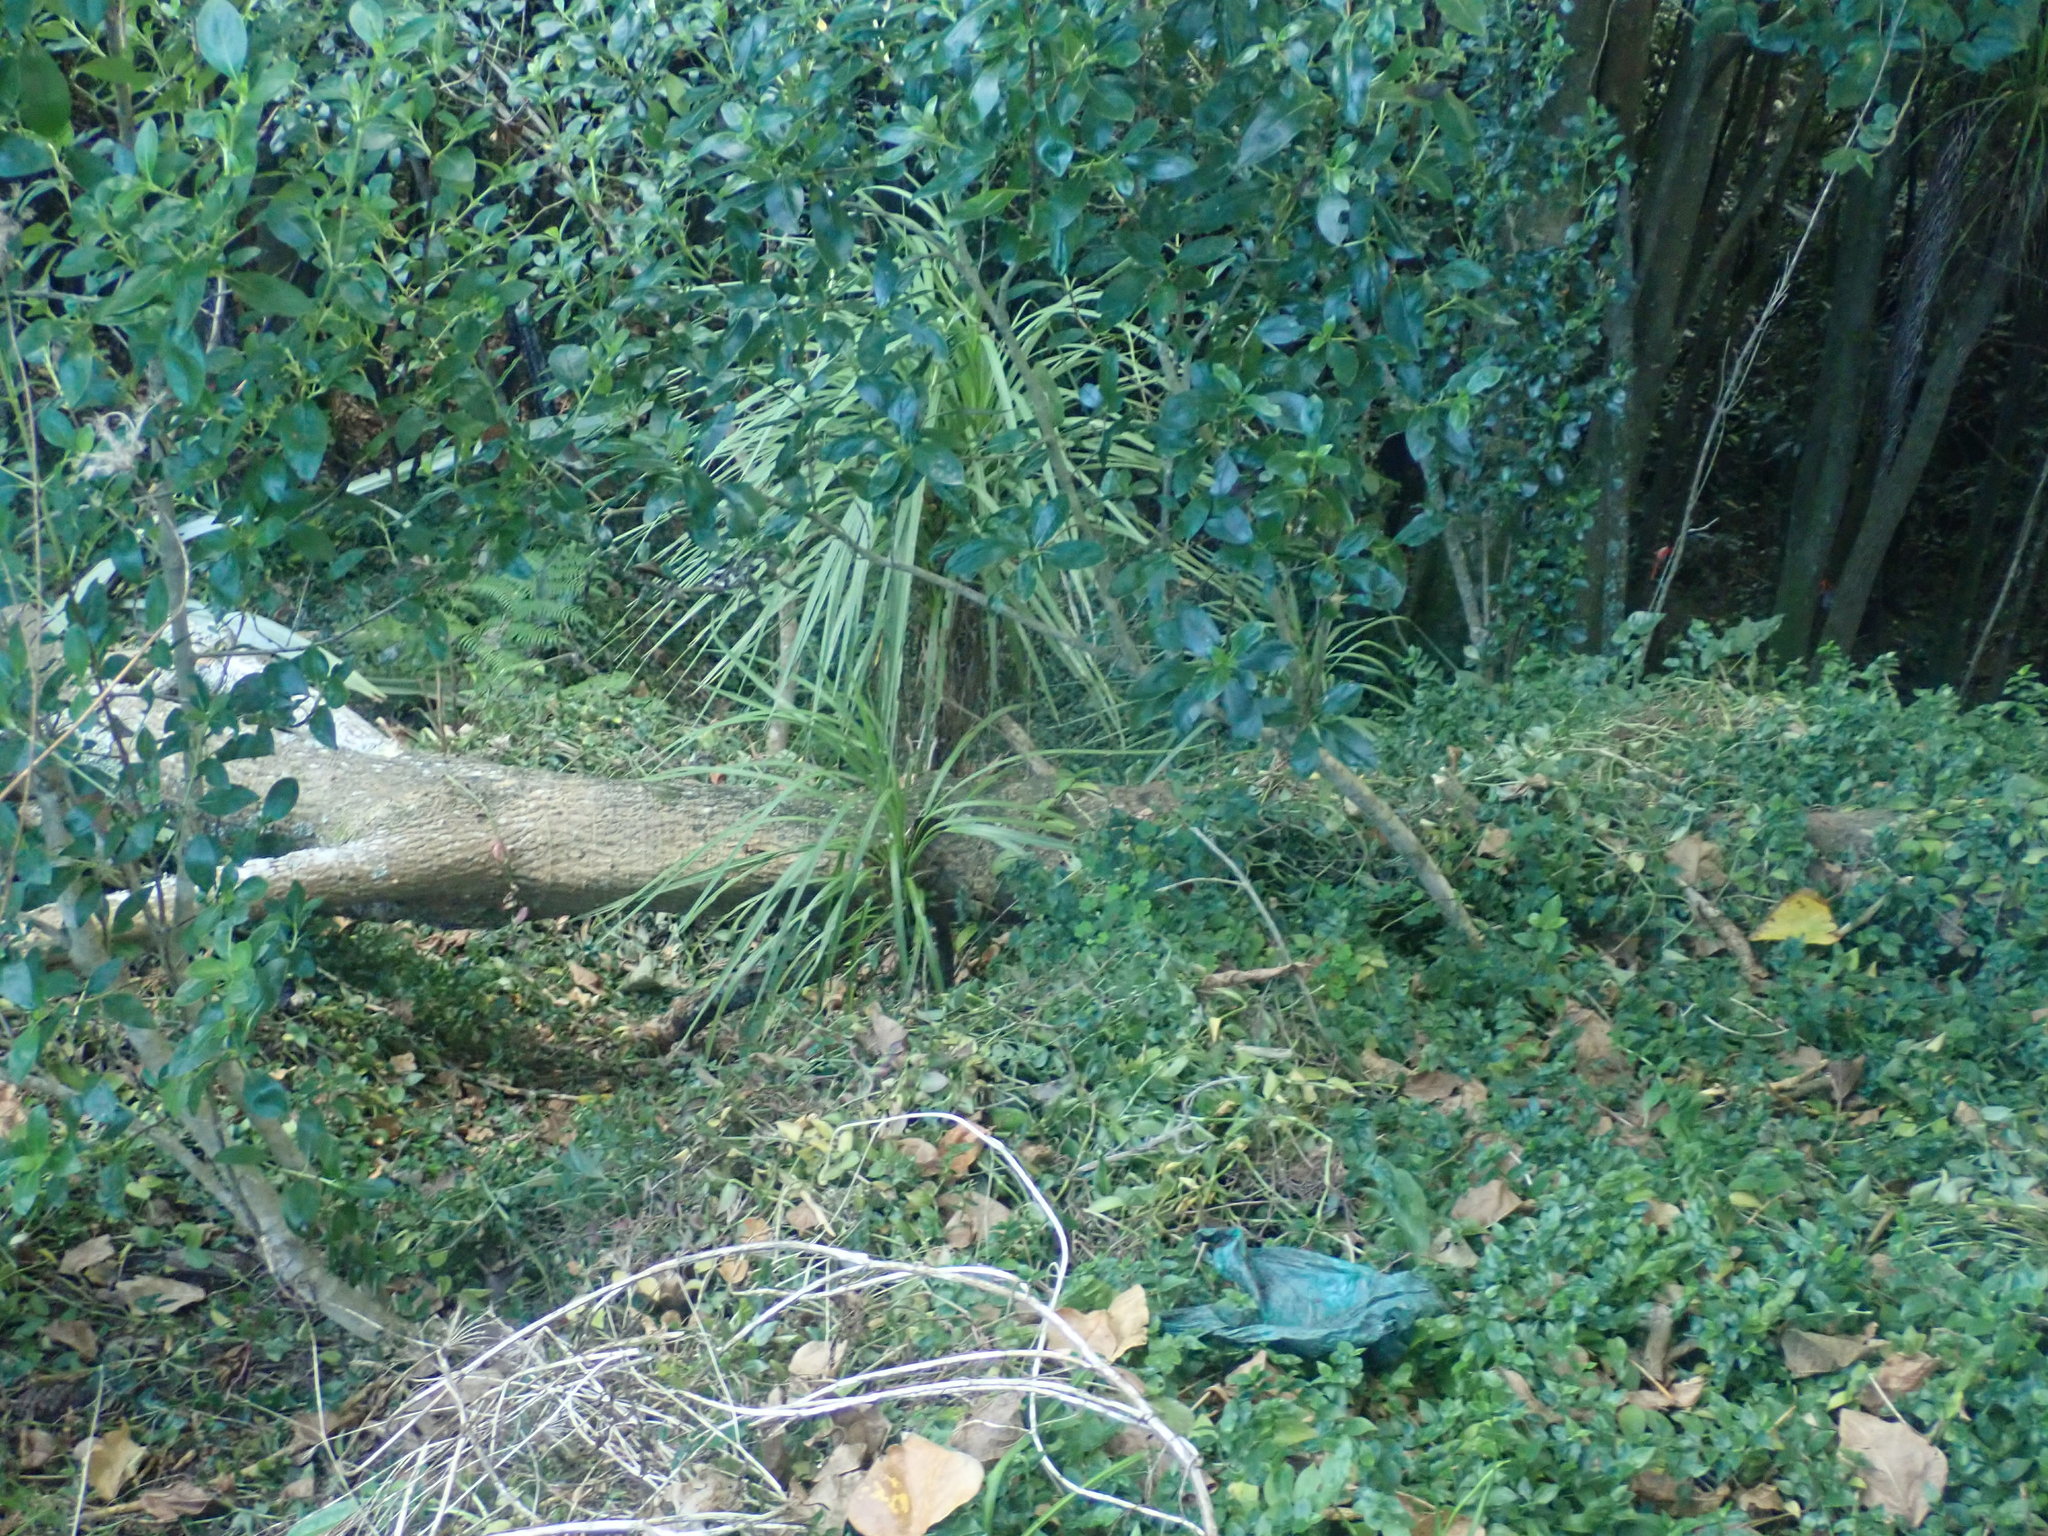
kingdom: Plantae
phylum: Tracheophyta
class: Liliopsida
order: Asparagales
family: Asparagaceae
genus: Cordyline
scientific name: Cordyline australis
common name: Cabbage-palm
